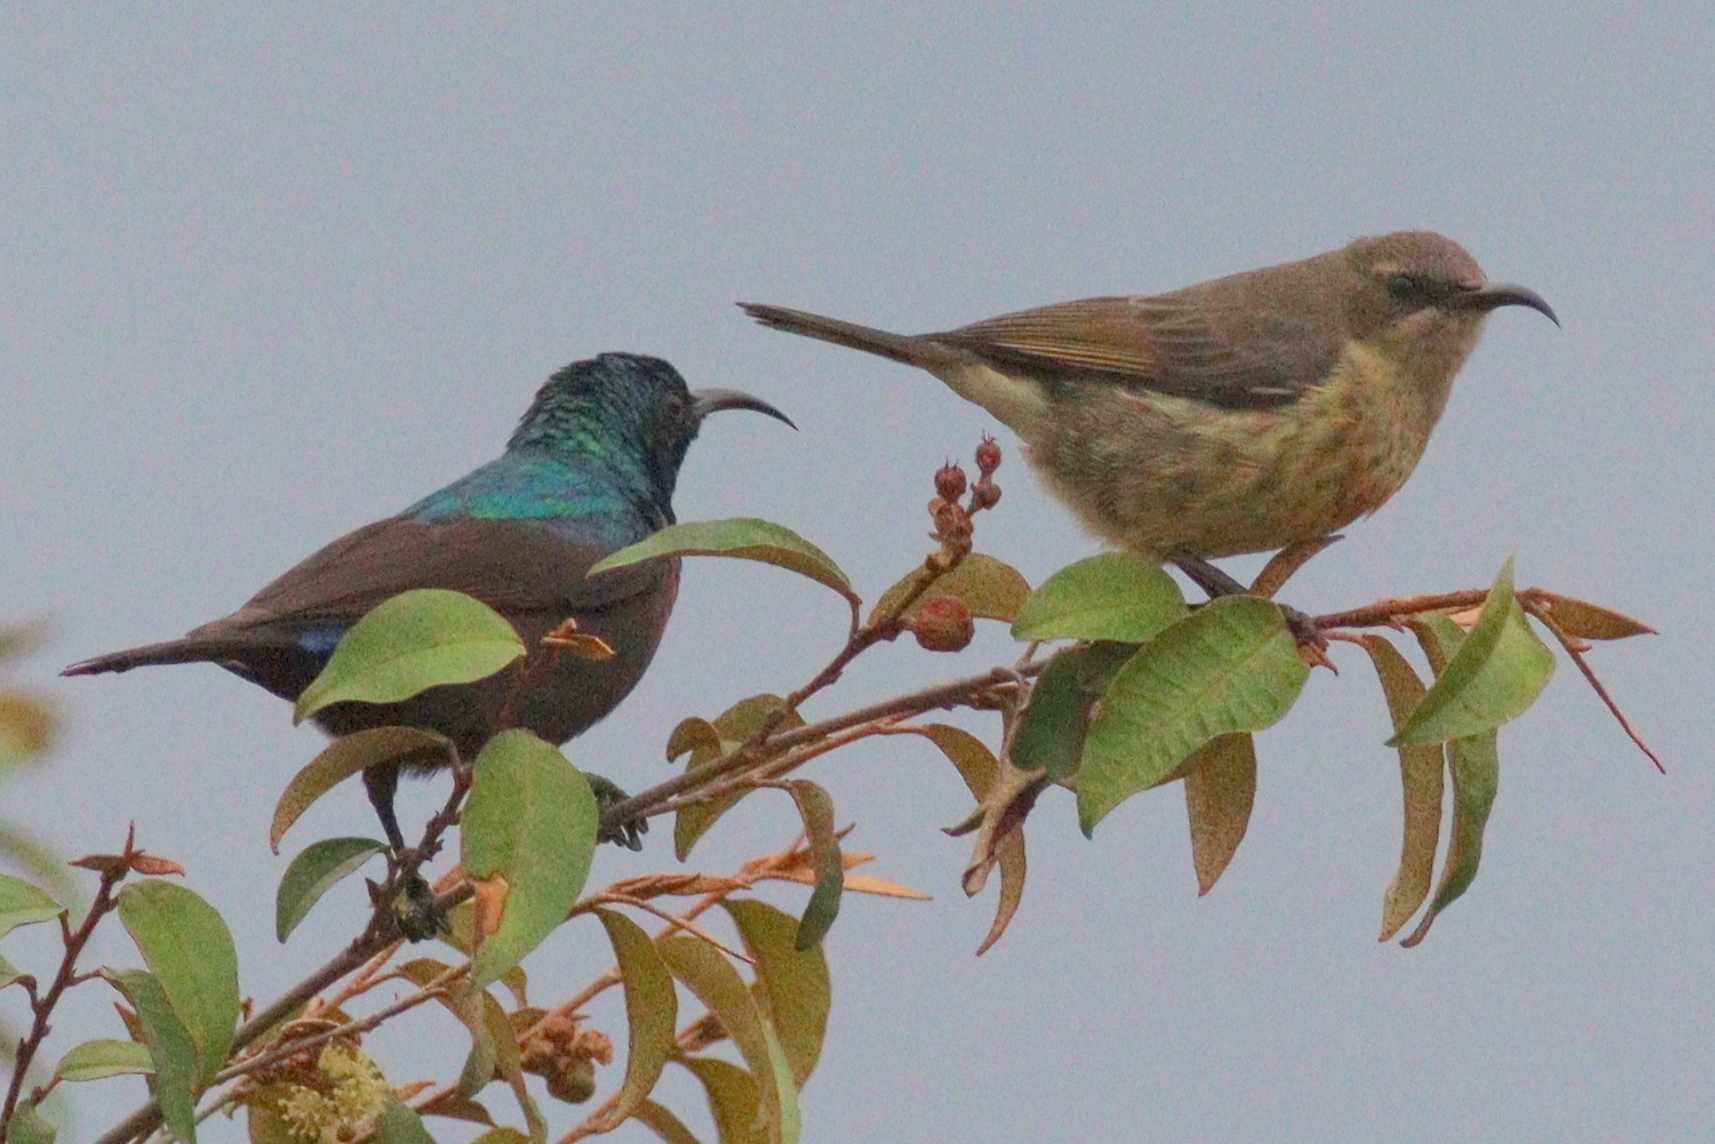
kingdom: Animalia
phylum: Chordata
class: Aves
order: Passeriformes
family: Nectariniidae
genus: Cinnyris
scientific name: Cinnyris bifasciatus
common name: Purple-banded sunbird
